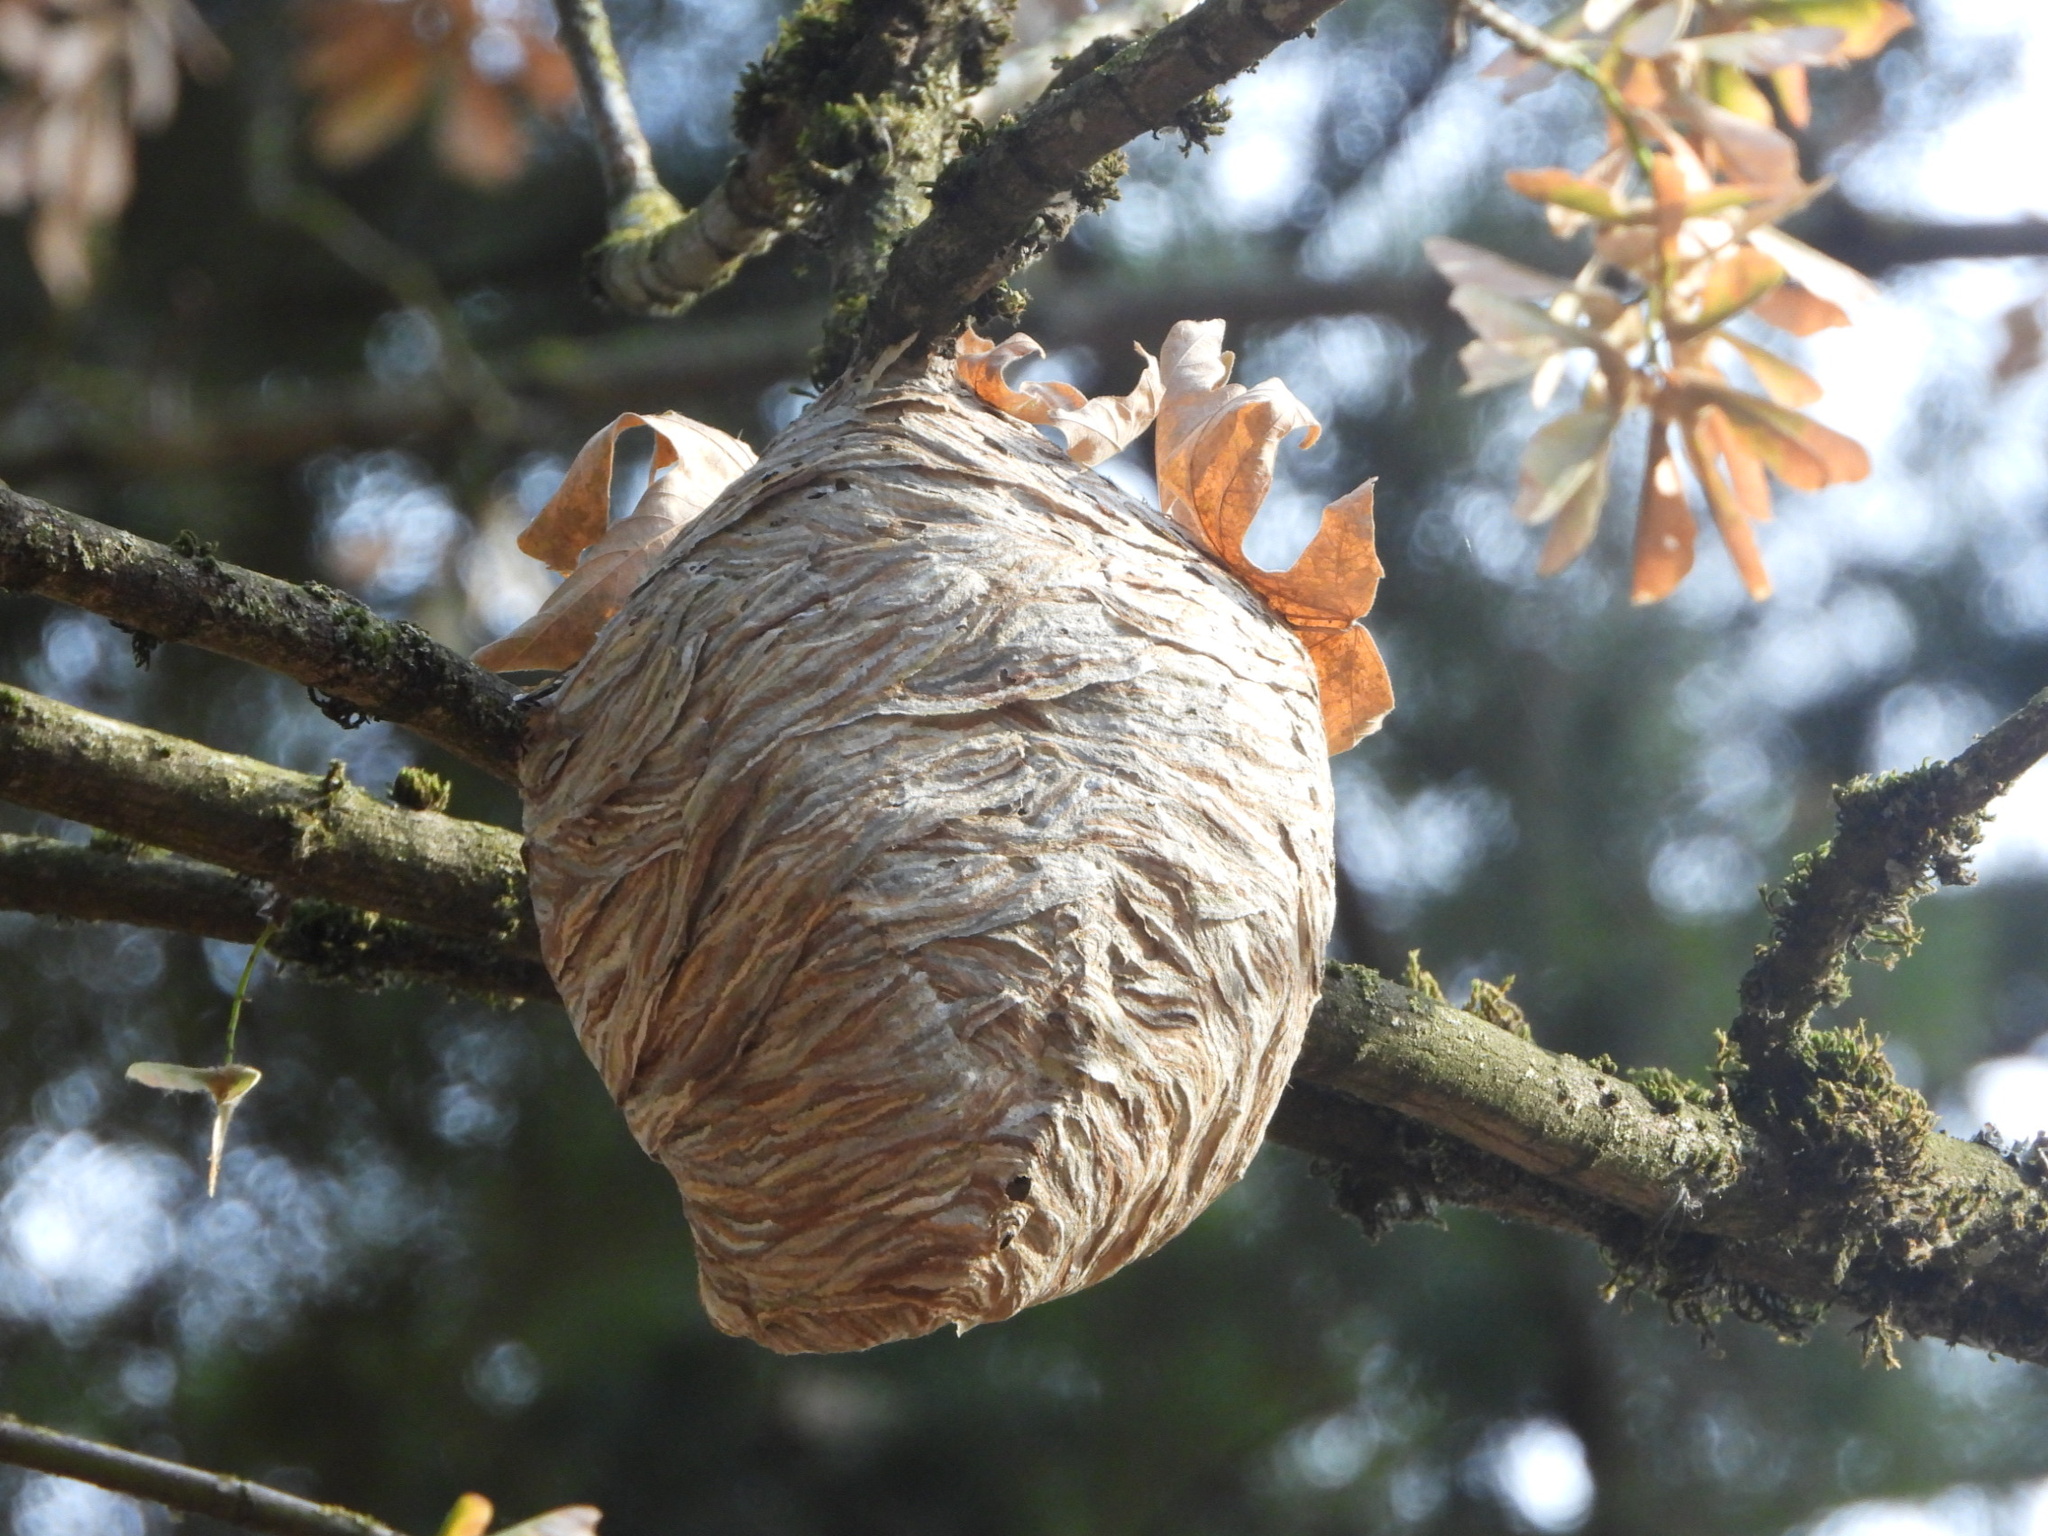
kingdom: Animalia
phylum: Arthropoda
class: Insecta
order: Hymenoptera
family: Vespidae
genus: Dolichovespula
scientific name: Dolichovespula
